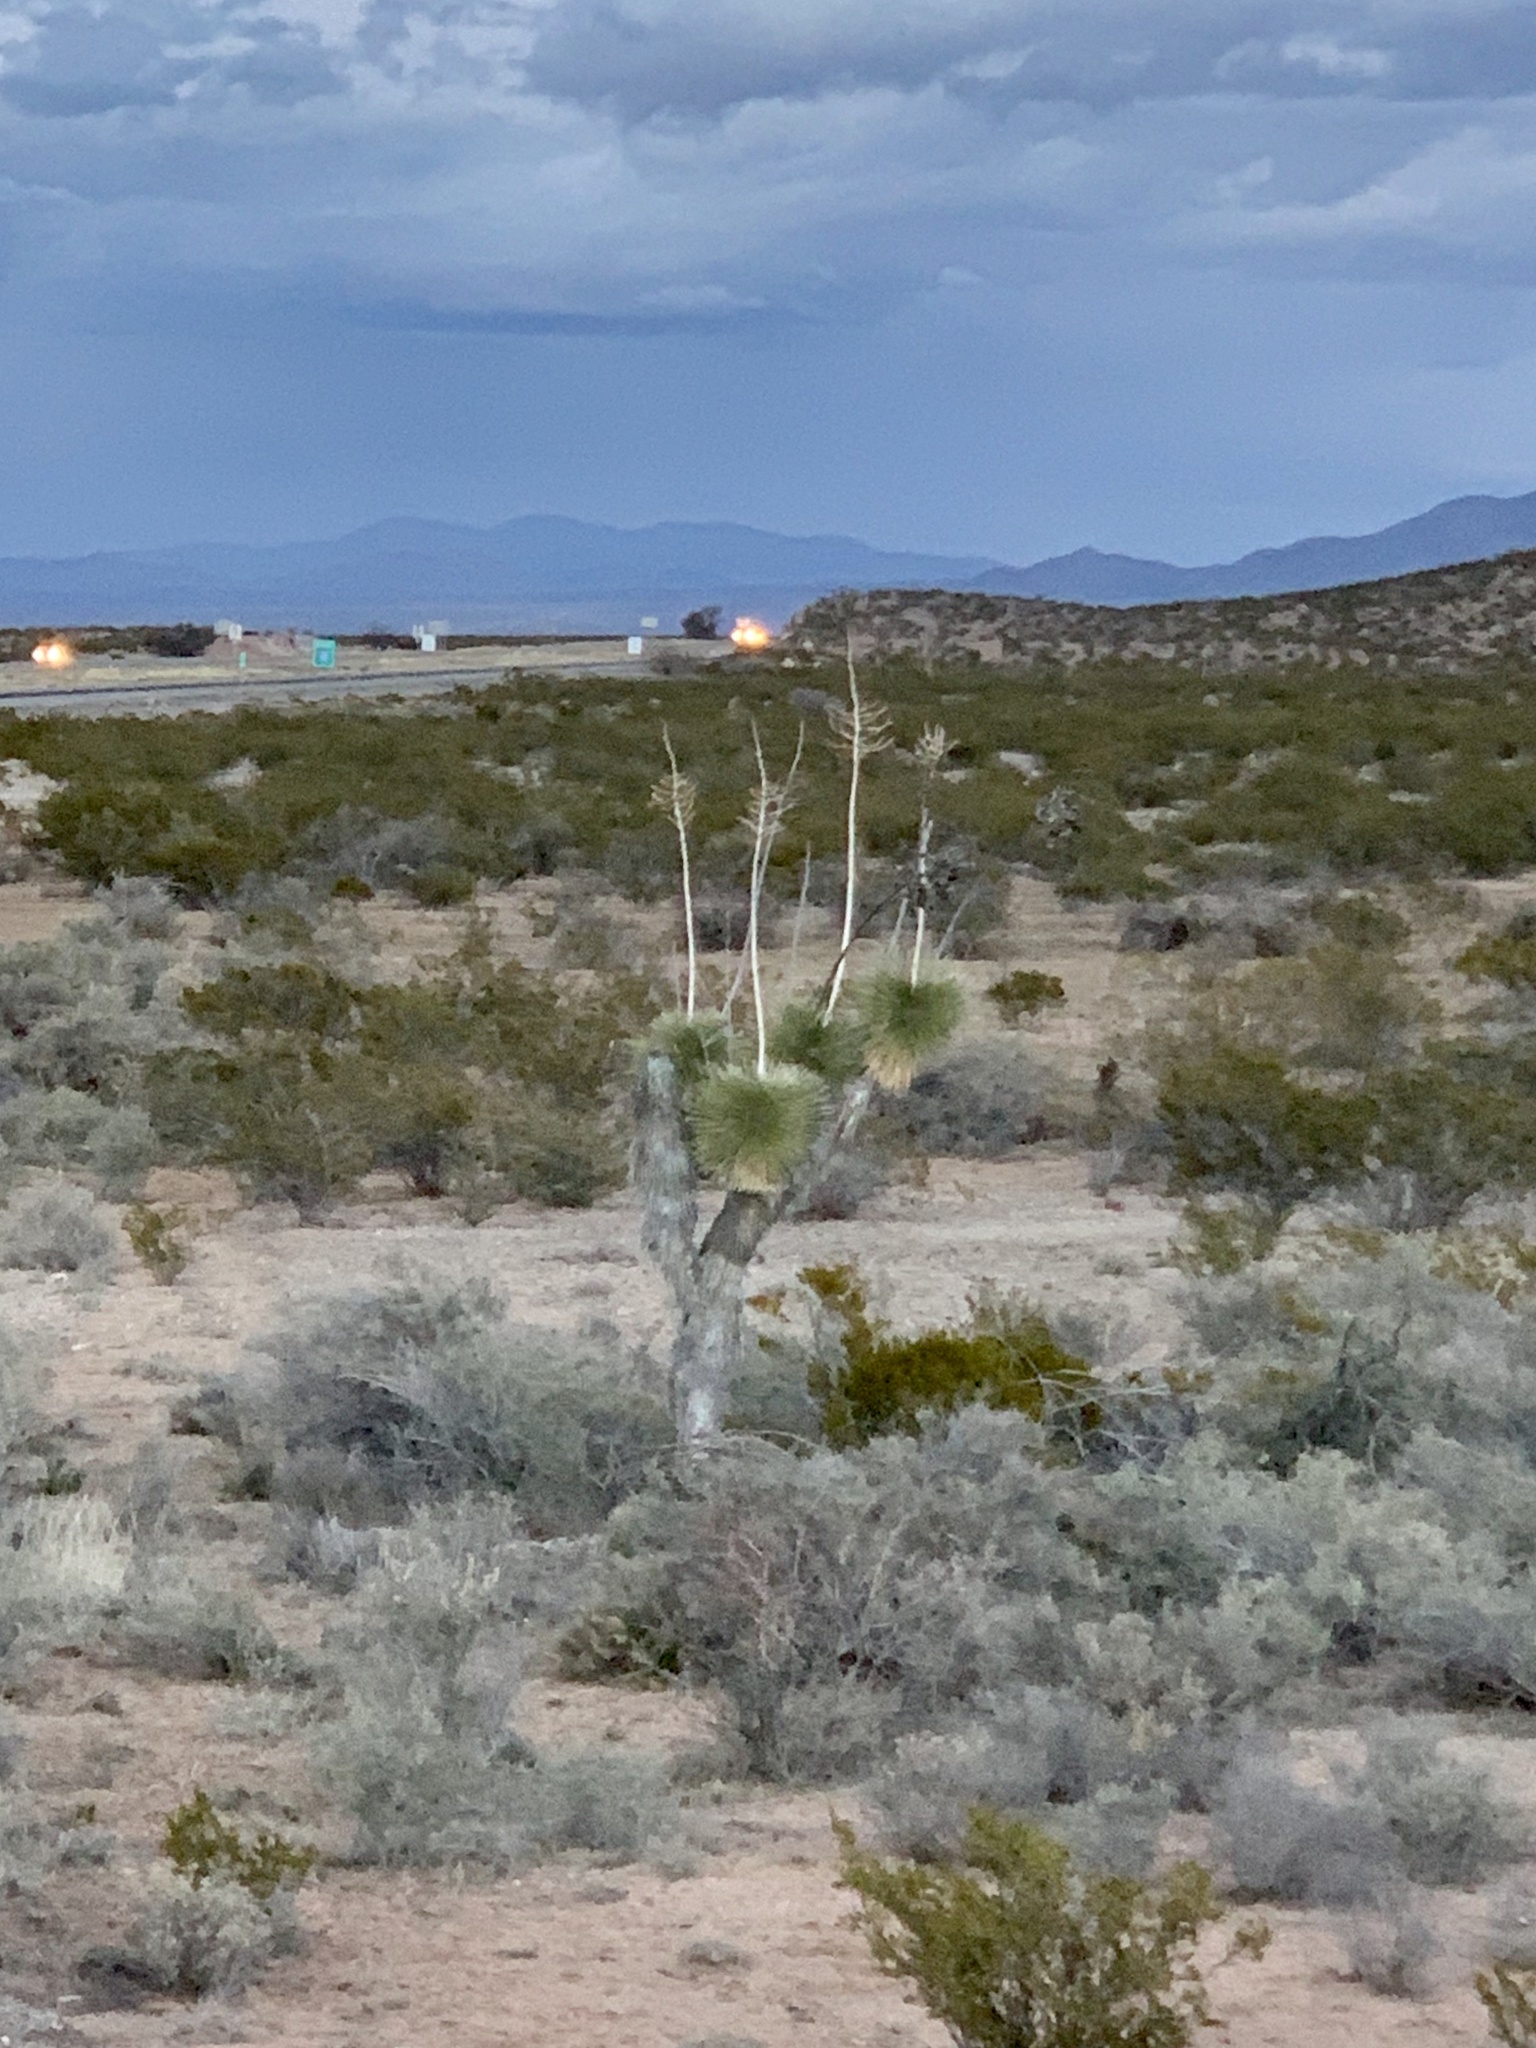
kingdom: Plantae
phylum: Tracheophyta
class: Liliopsida
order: Asparagales
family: Asparagaceae
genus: Yucca
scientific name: Yucca elata
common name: Palmella
